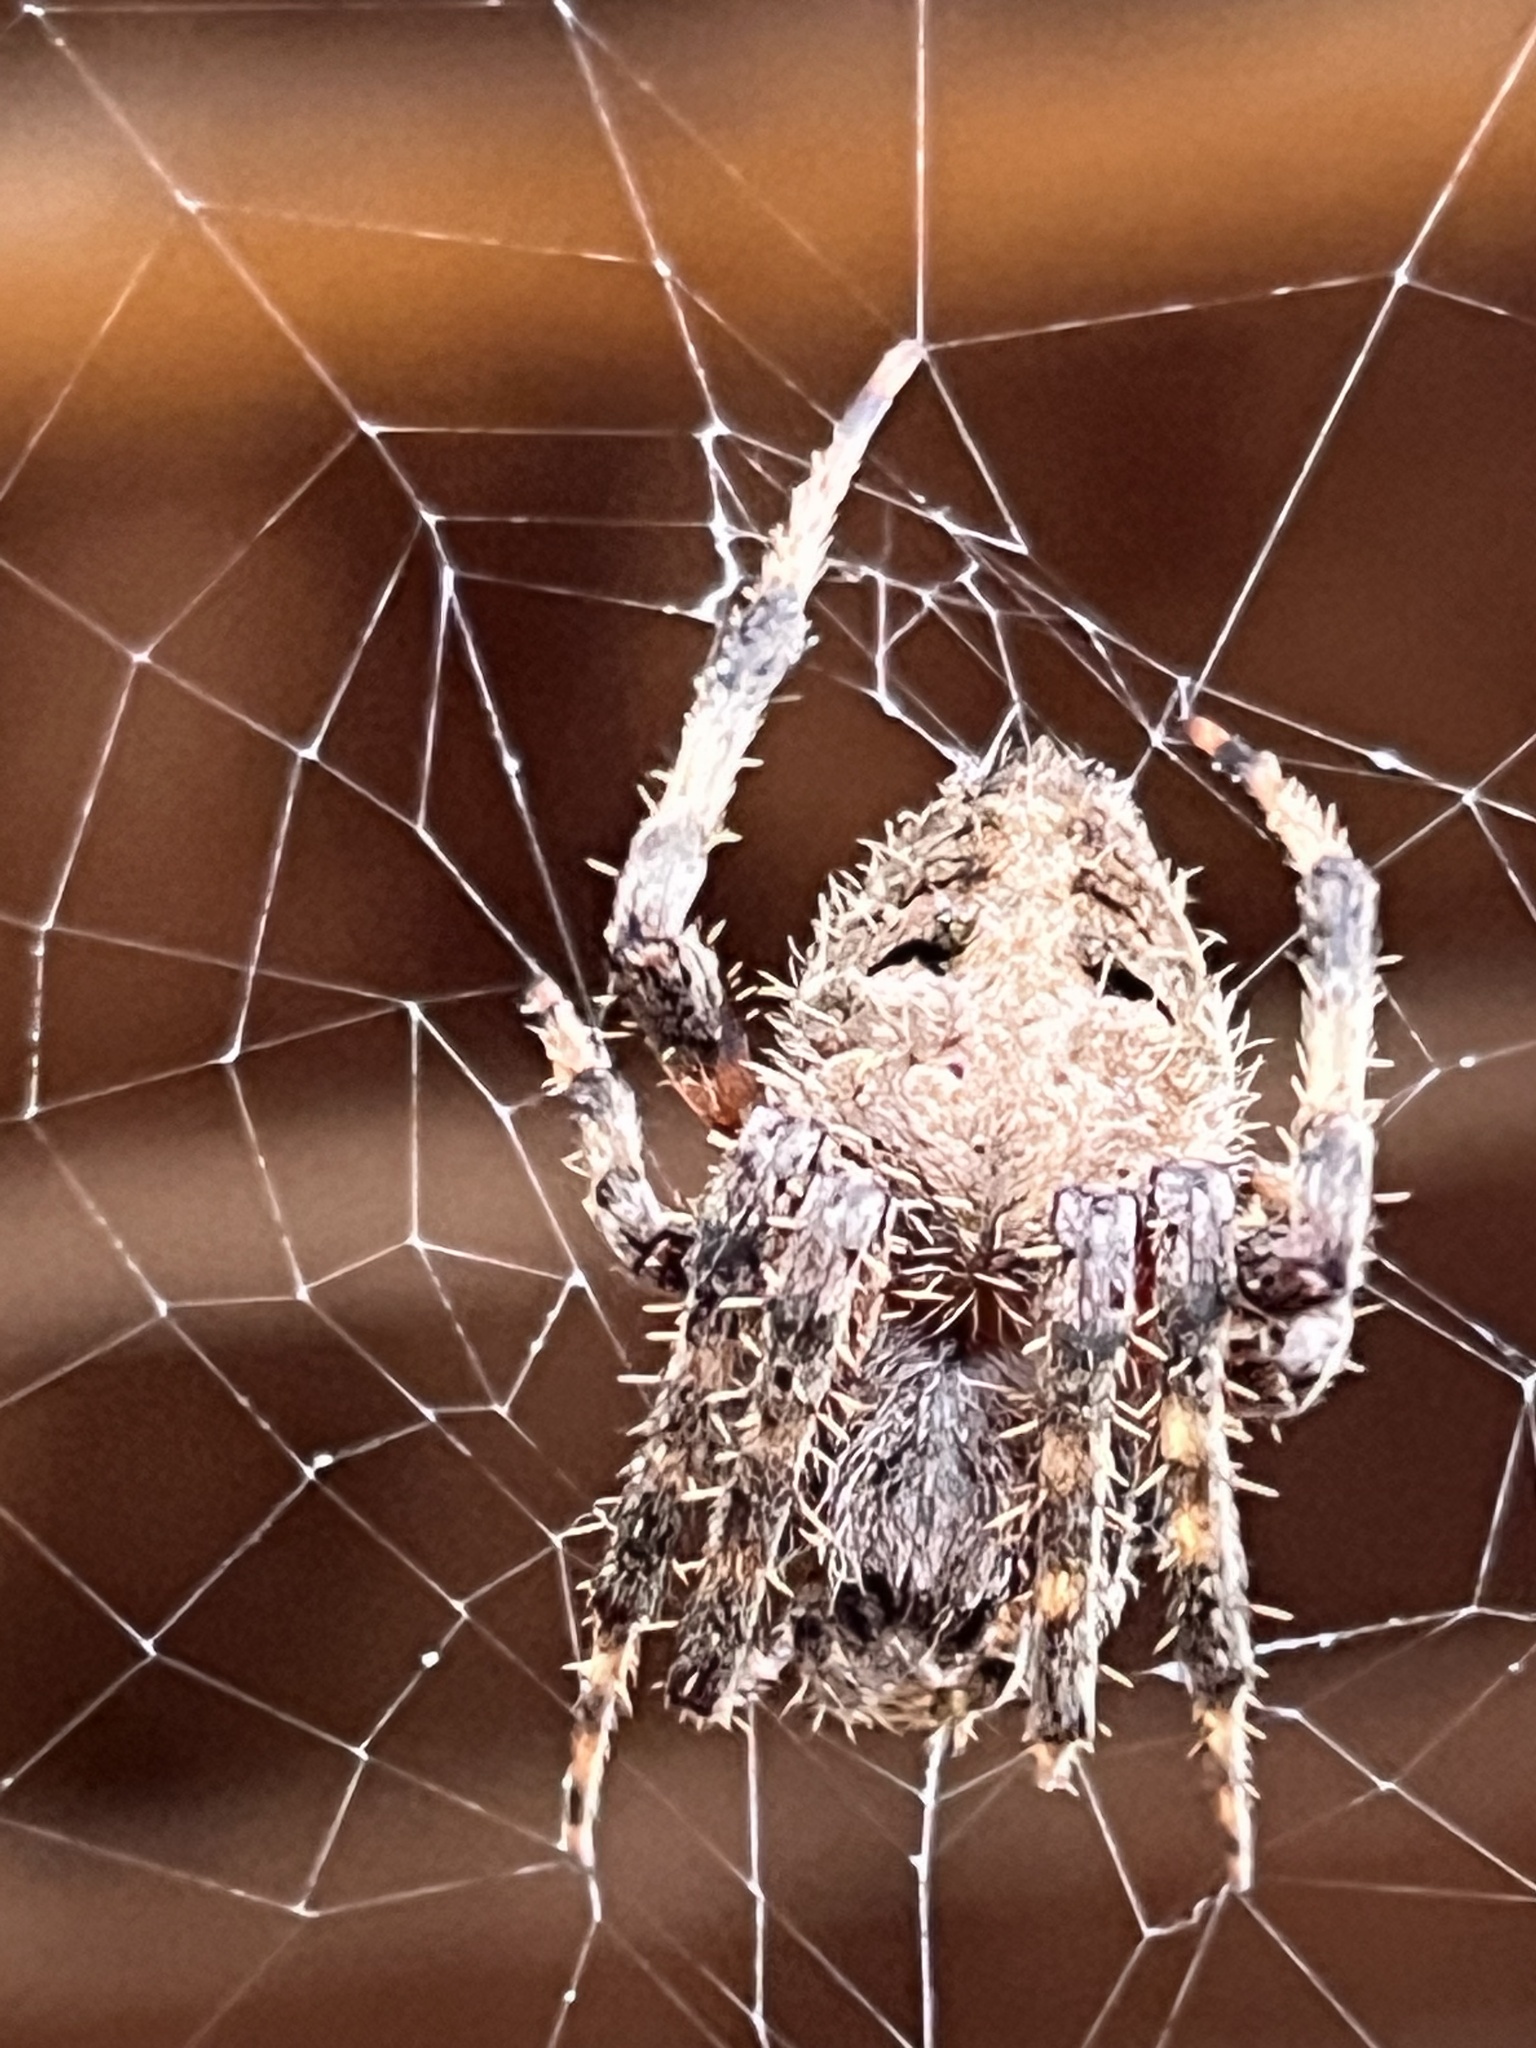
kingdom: Animalia
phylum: Arthropoda
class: Arachnida
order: Araneae
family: Araneidae
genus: Neoscona
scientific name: Neoscona crucifera
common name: Spotted orbweaver
